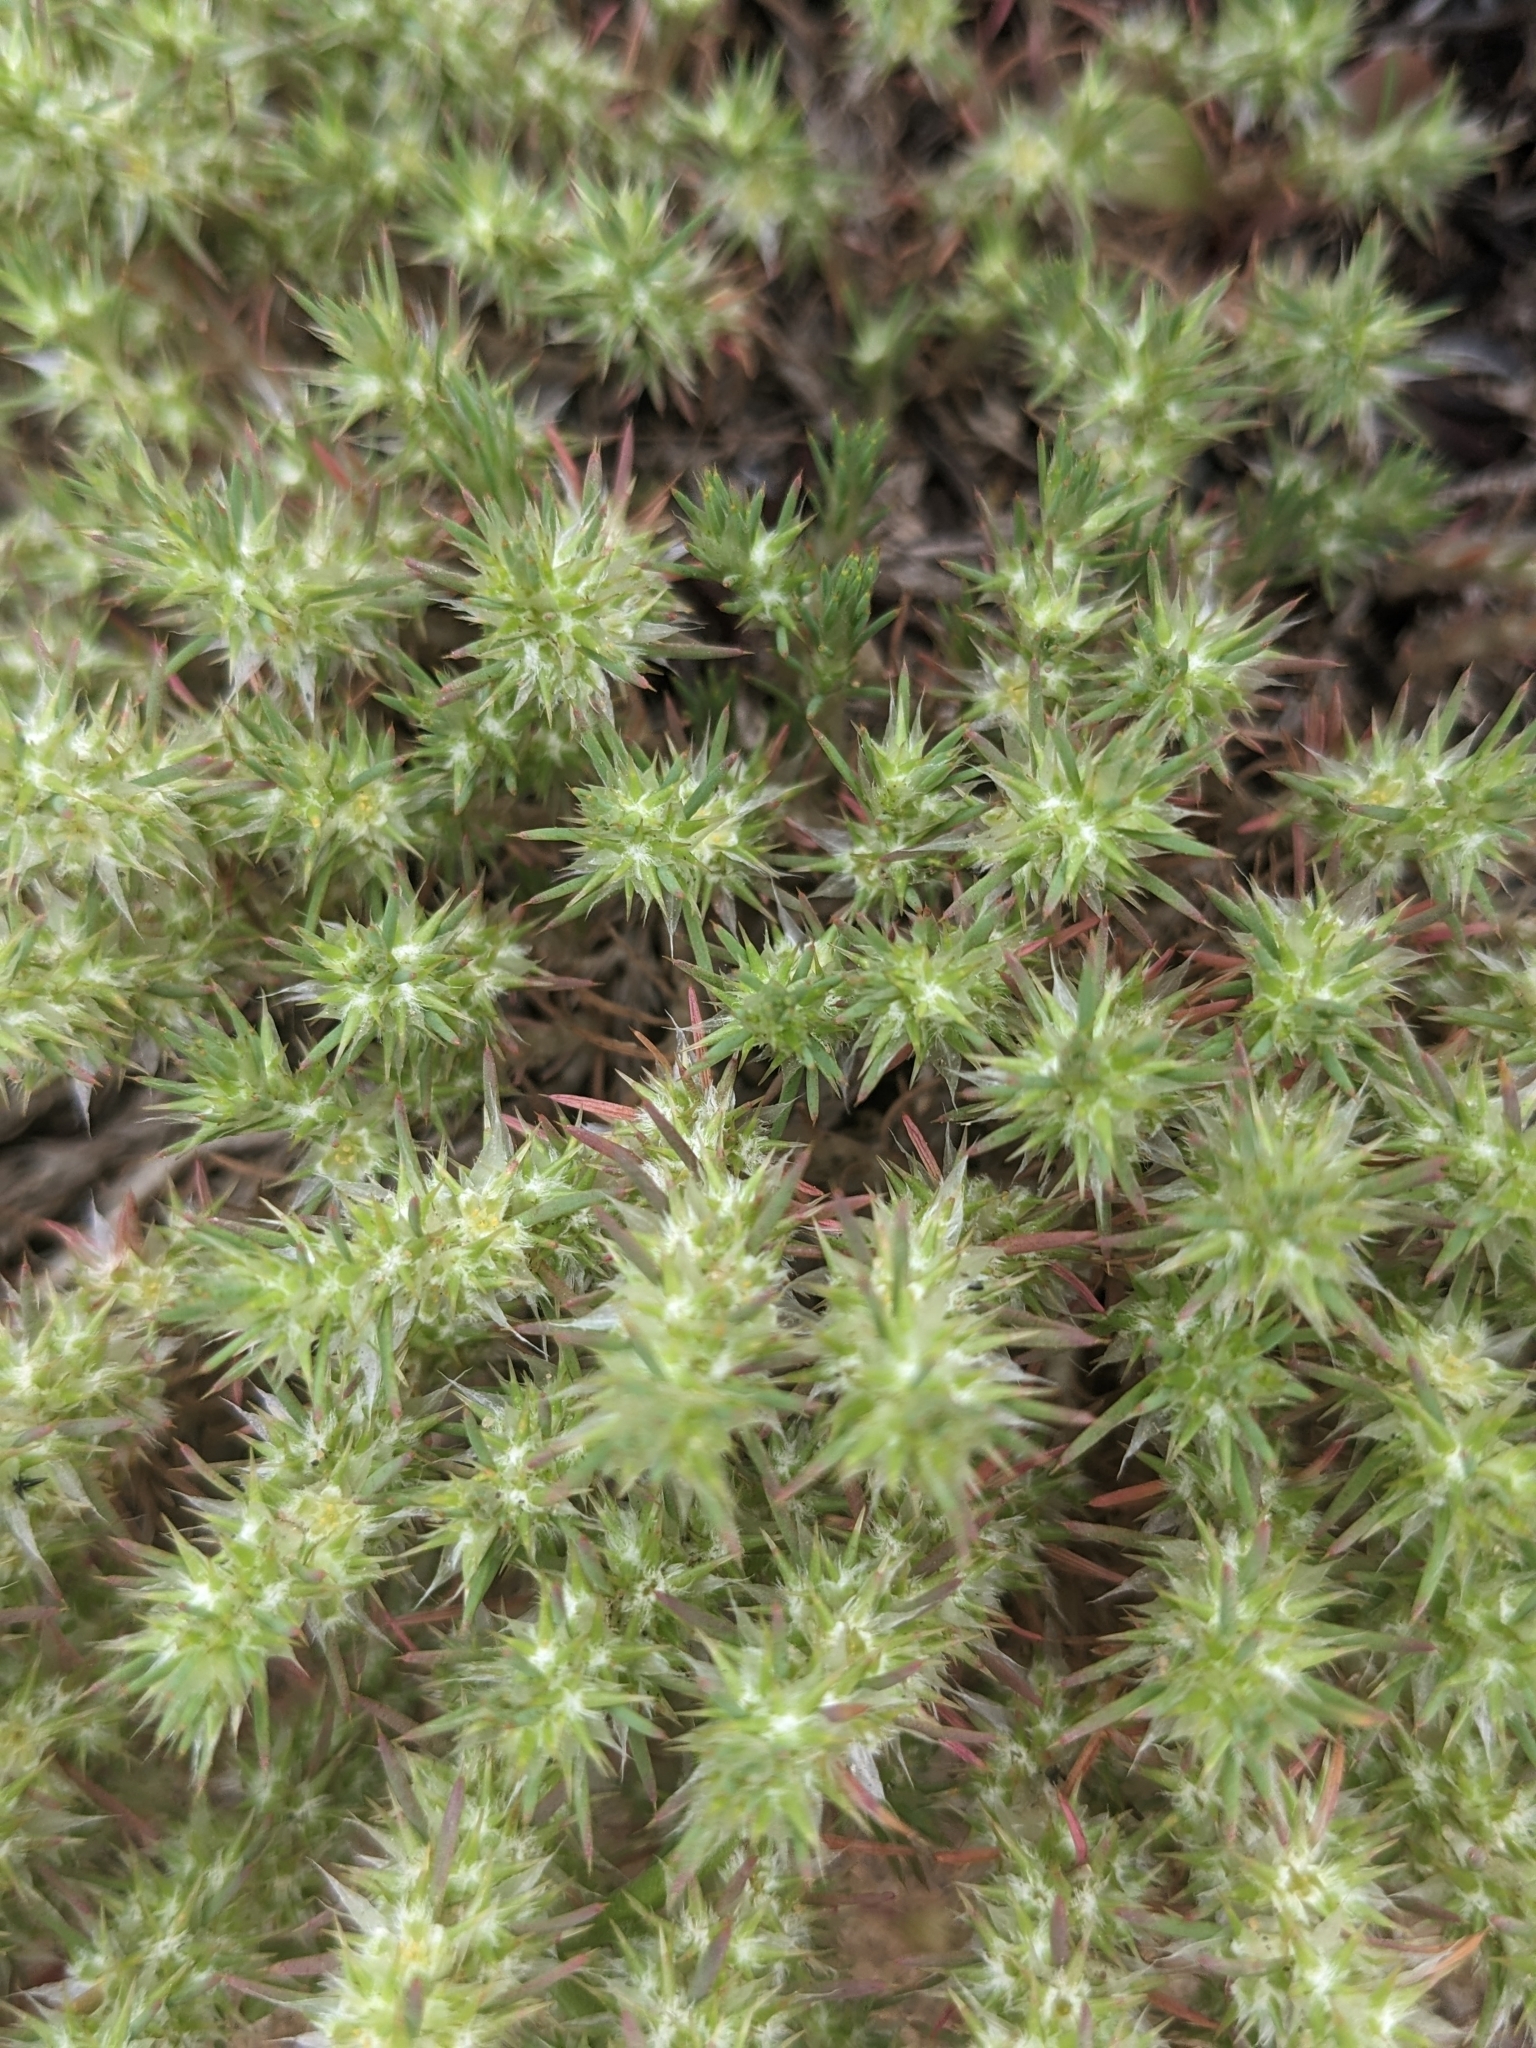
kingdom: Plantae
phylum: Tracheophyta
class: Magnoliopsida
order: Caryophyllales
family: Caryophyllaceae
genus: Cardionema
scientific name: Cardionema ramosissima
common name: Sandcarpet
